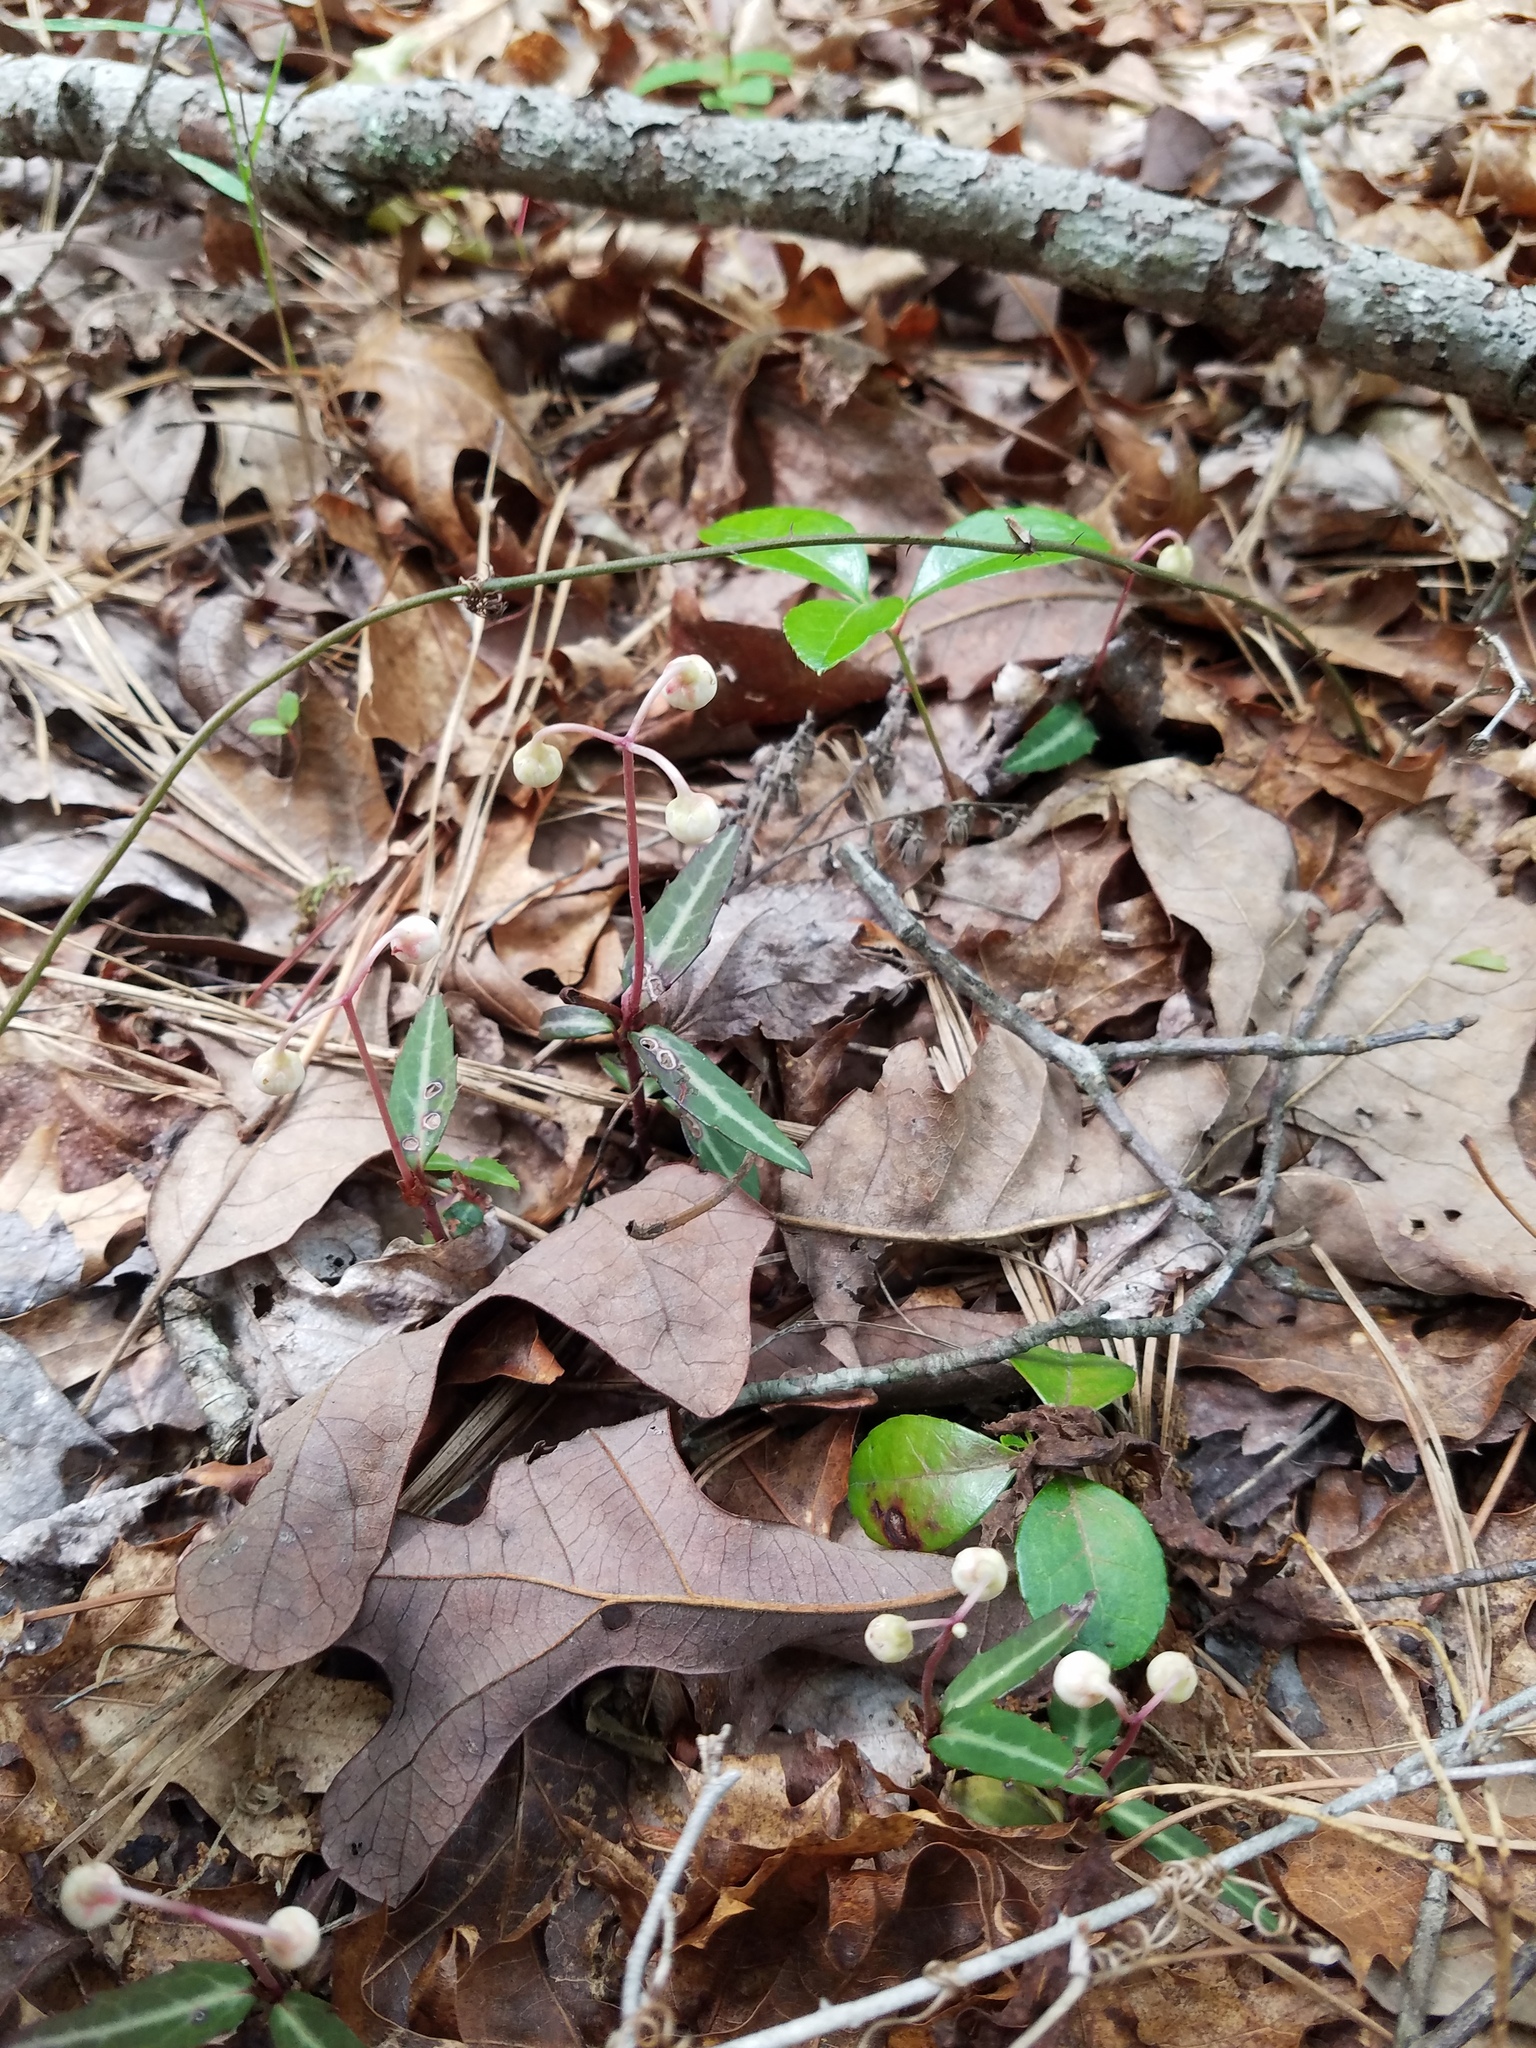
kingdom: Plantae
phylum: Tracheophyta
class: Magnoliopsida
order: Ericales
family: Ericaceae
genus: Chimaphila
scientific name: Chimaphila maculata
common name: Spotted pipsissewa
